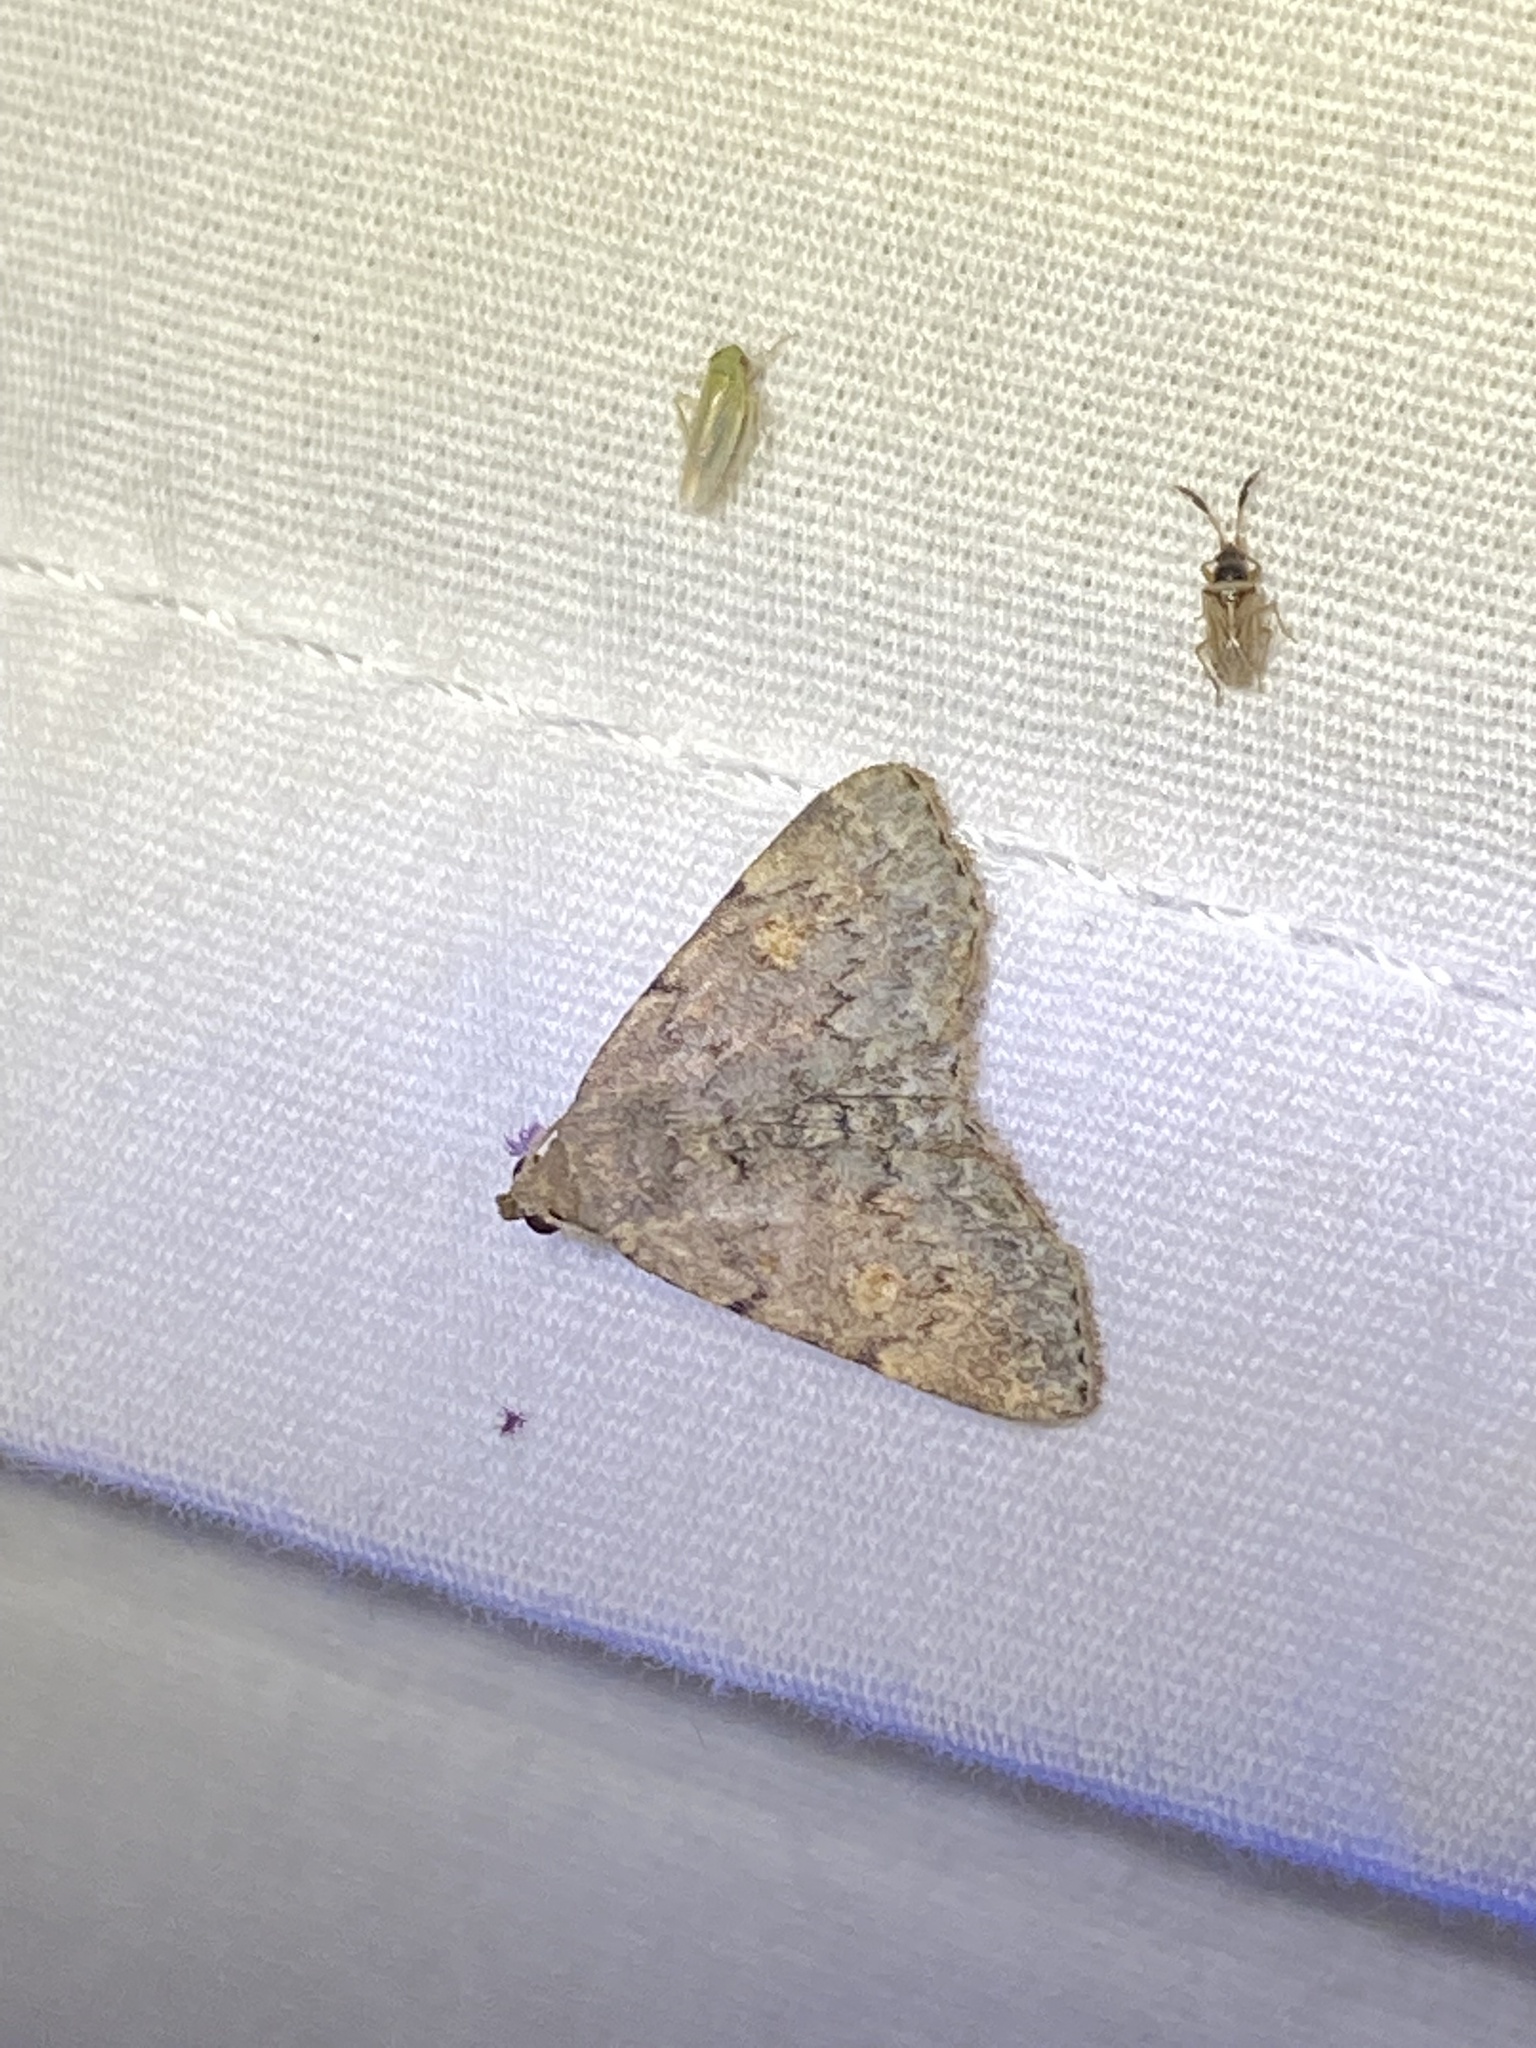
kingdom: Animalia
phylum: Arthropoda
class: Insecta
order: Lepidoptera
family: Erebidae
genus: Idia
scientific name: Idia aemula
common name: Common idia moth
